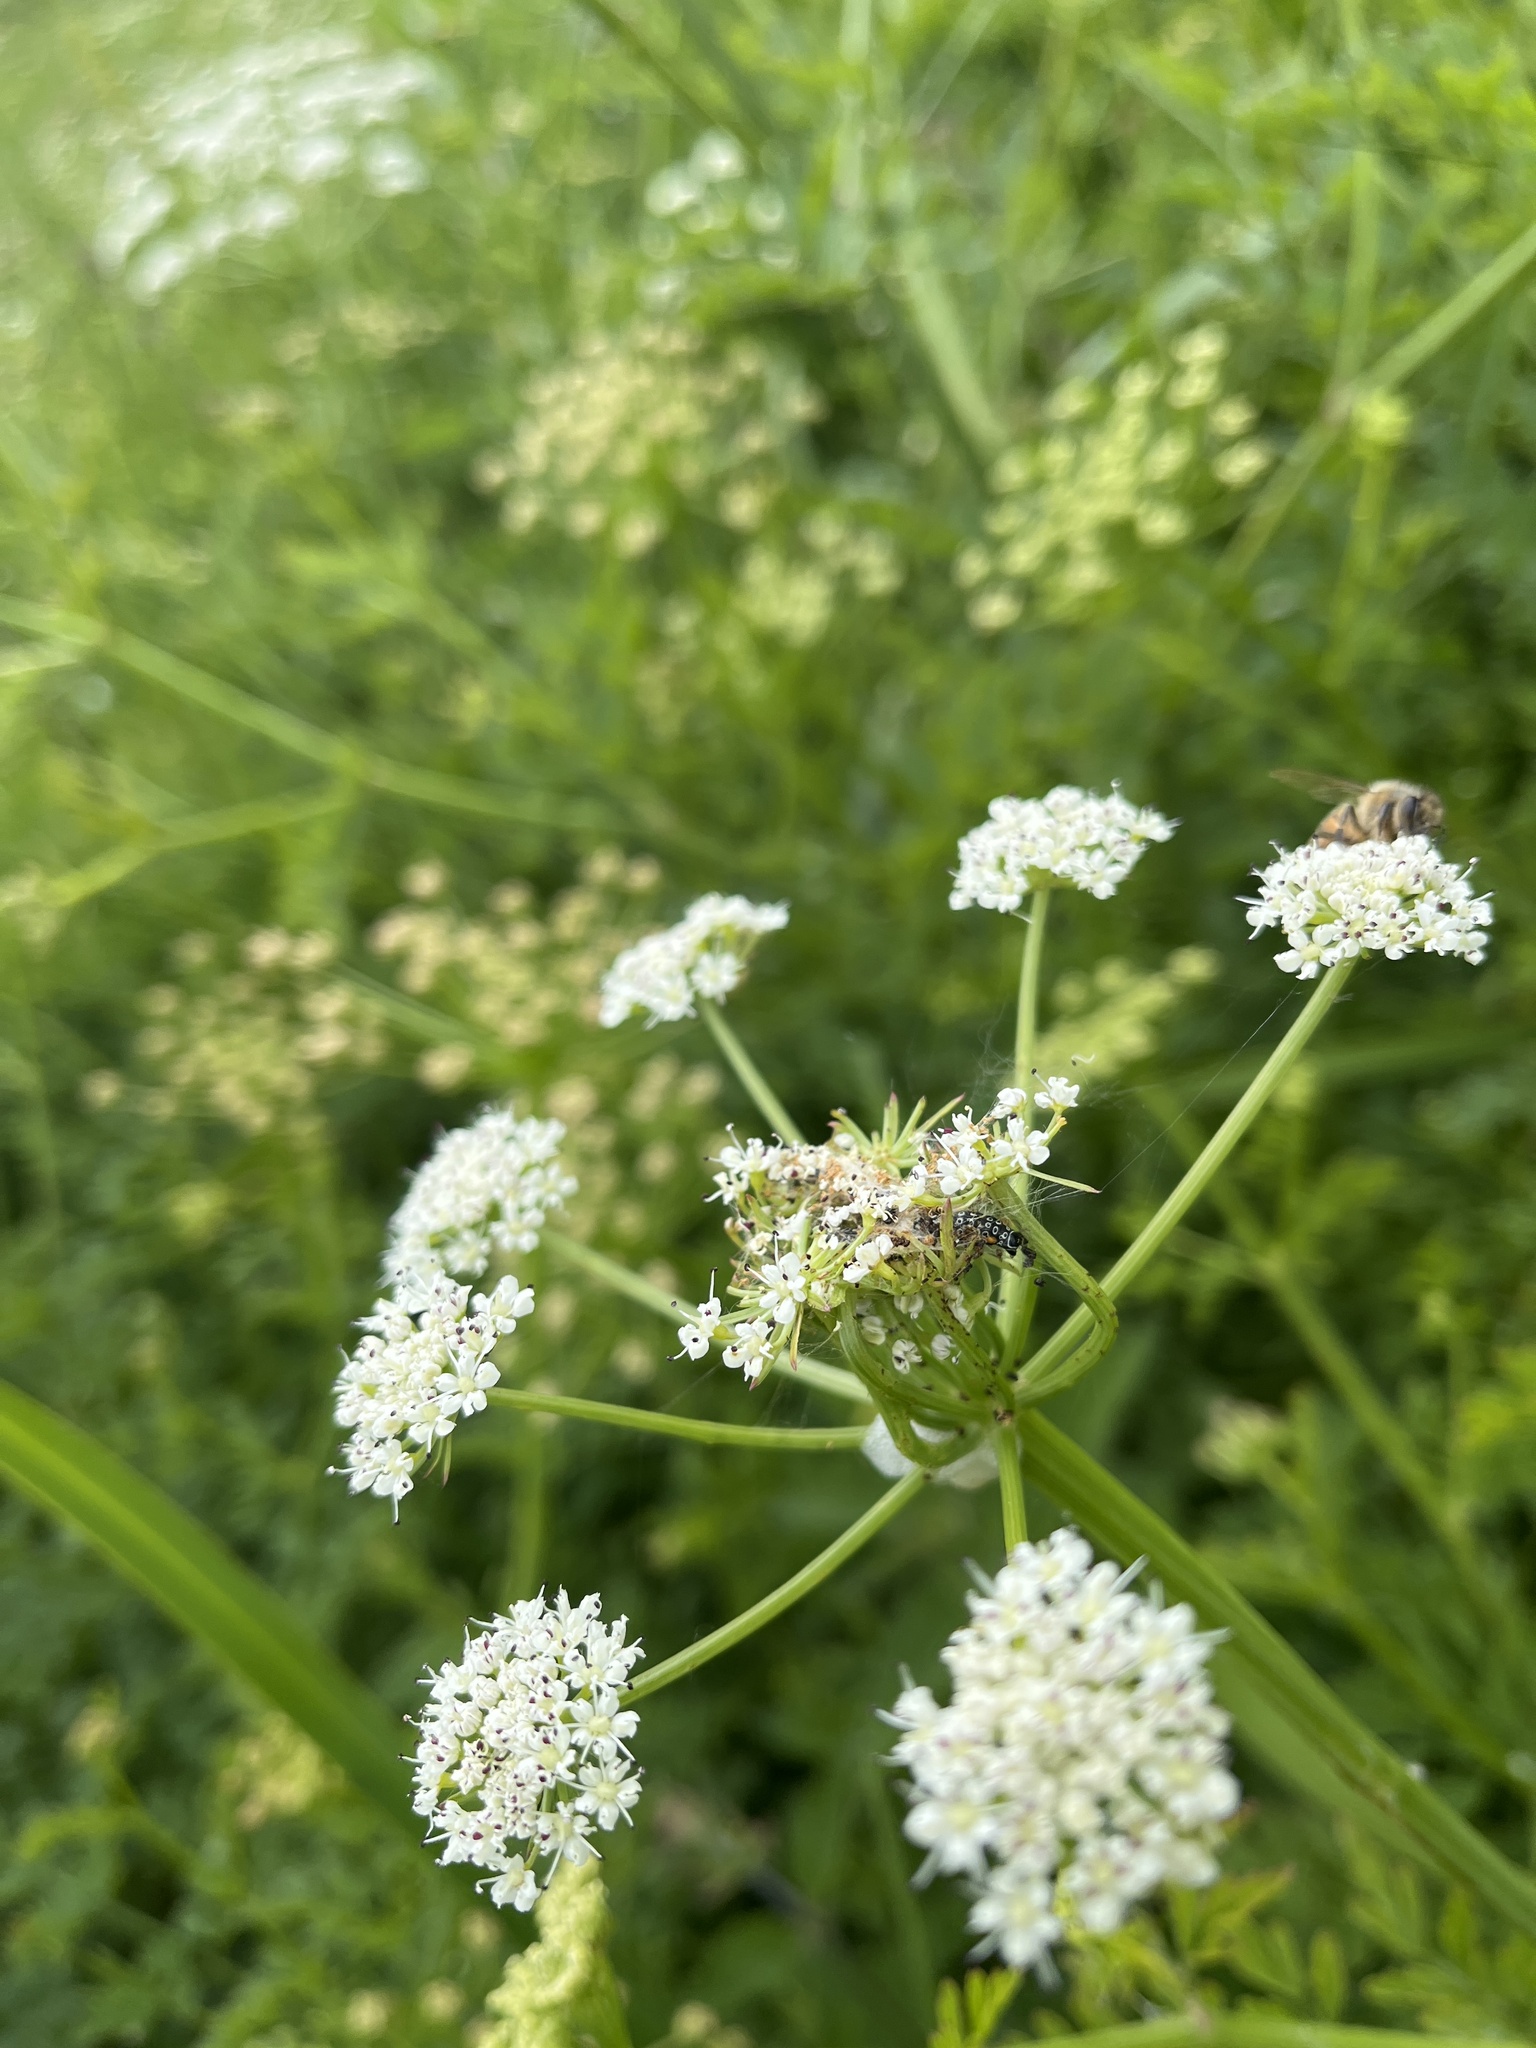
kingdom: Animalia
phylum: Arthropoda
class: Insecta
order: Lepidoptera
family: Depressariidae
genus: Depressaria
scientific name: Depressaria apiella
